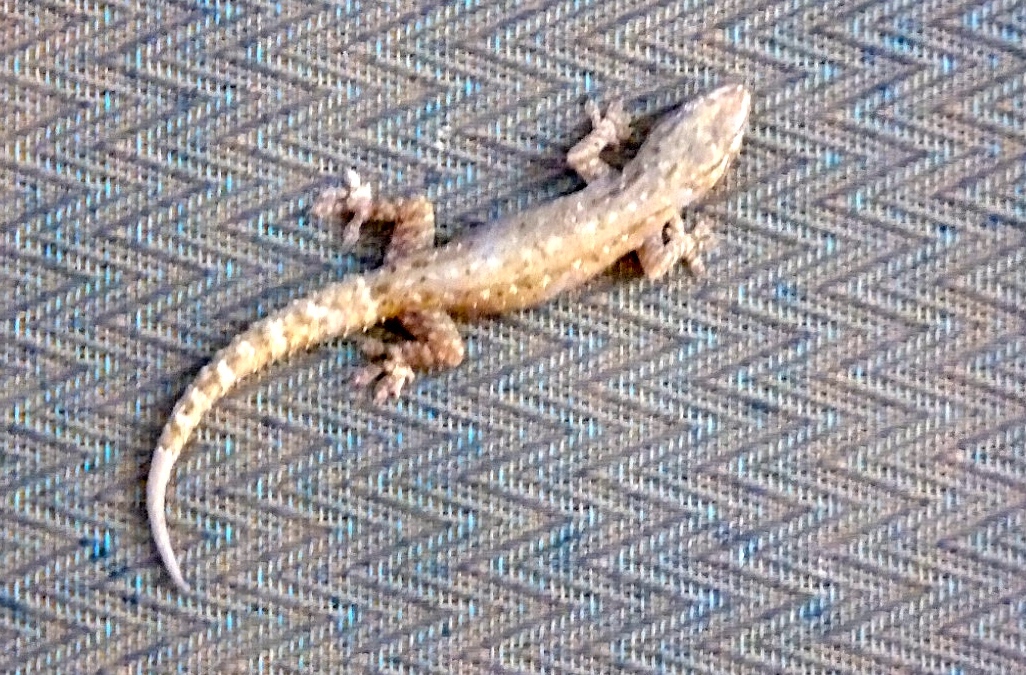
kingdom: Animalia
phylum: Chordata
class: Squamata
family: Gekkonidae
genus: Hemidactylus
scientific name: Hemidactylus frenatus
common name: Common house gecko
